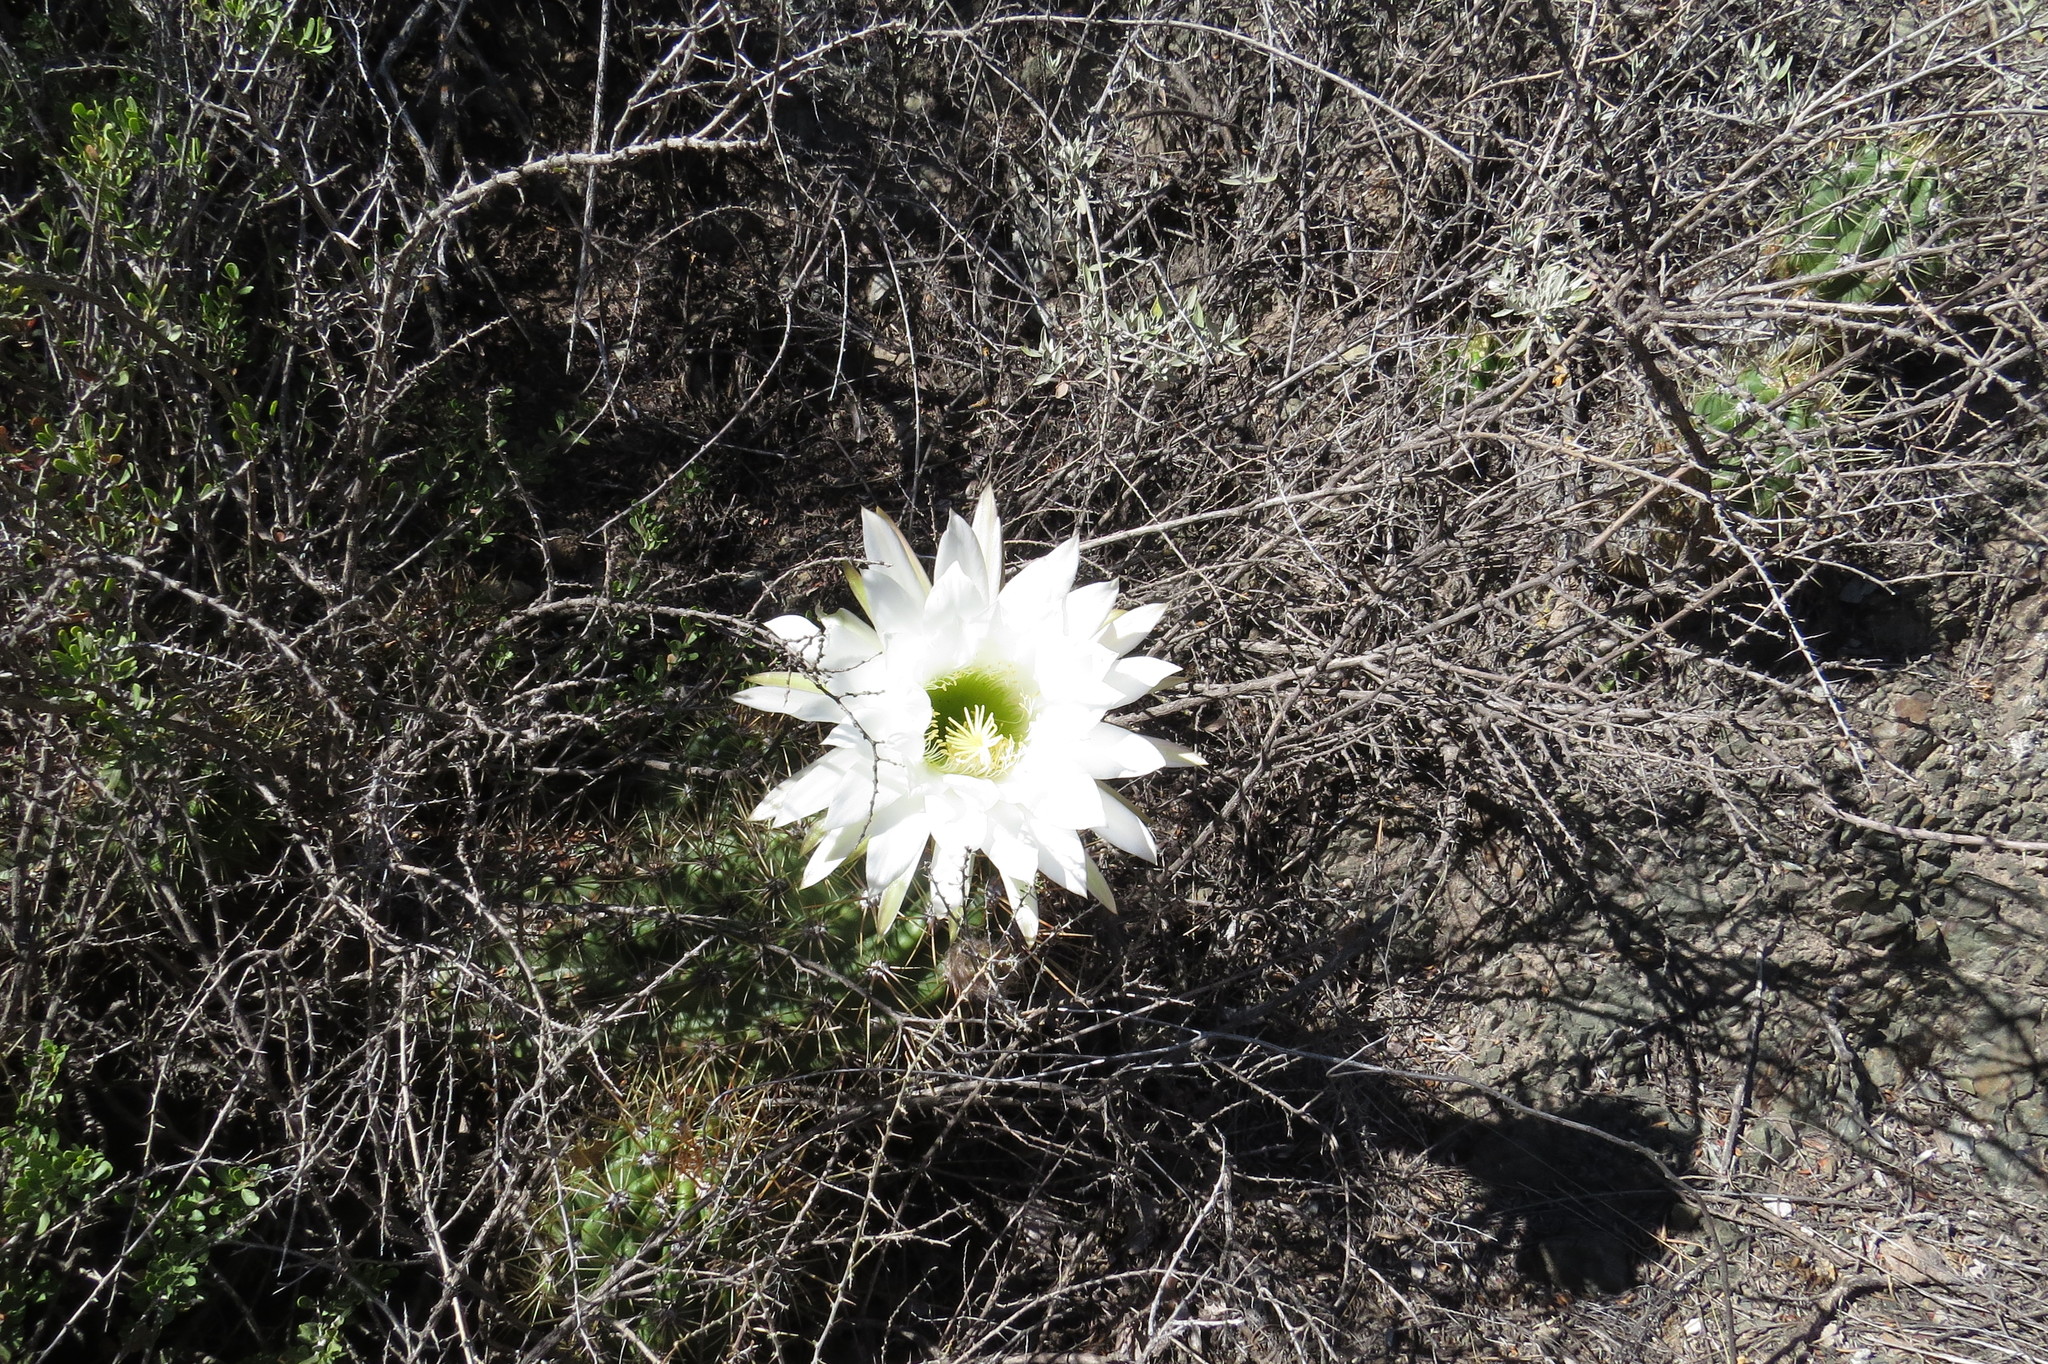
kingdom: Plantae
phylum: Tracheophyta
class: Magnoliopsida
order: Caryophyllales
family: Cactaceae
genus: Soehrensia
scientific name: Soehrensia candicans
